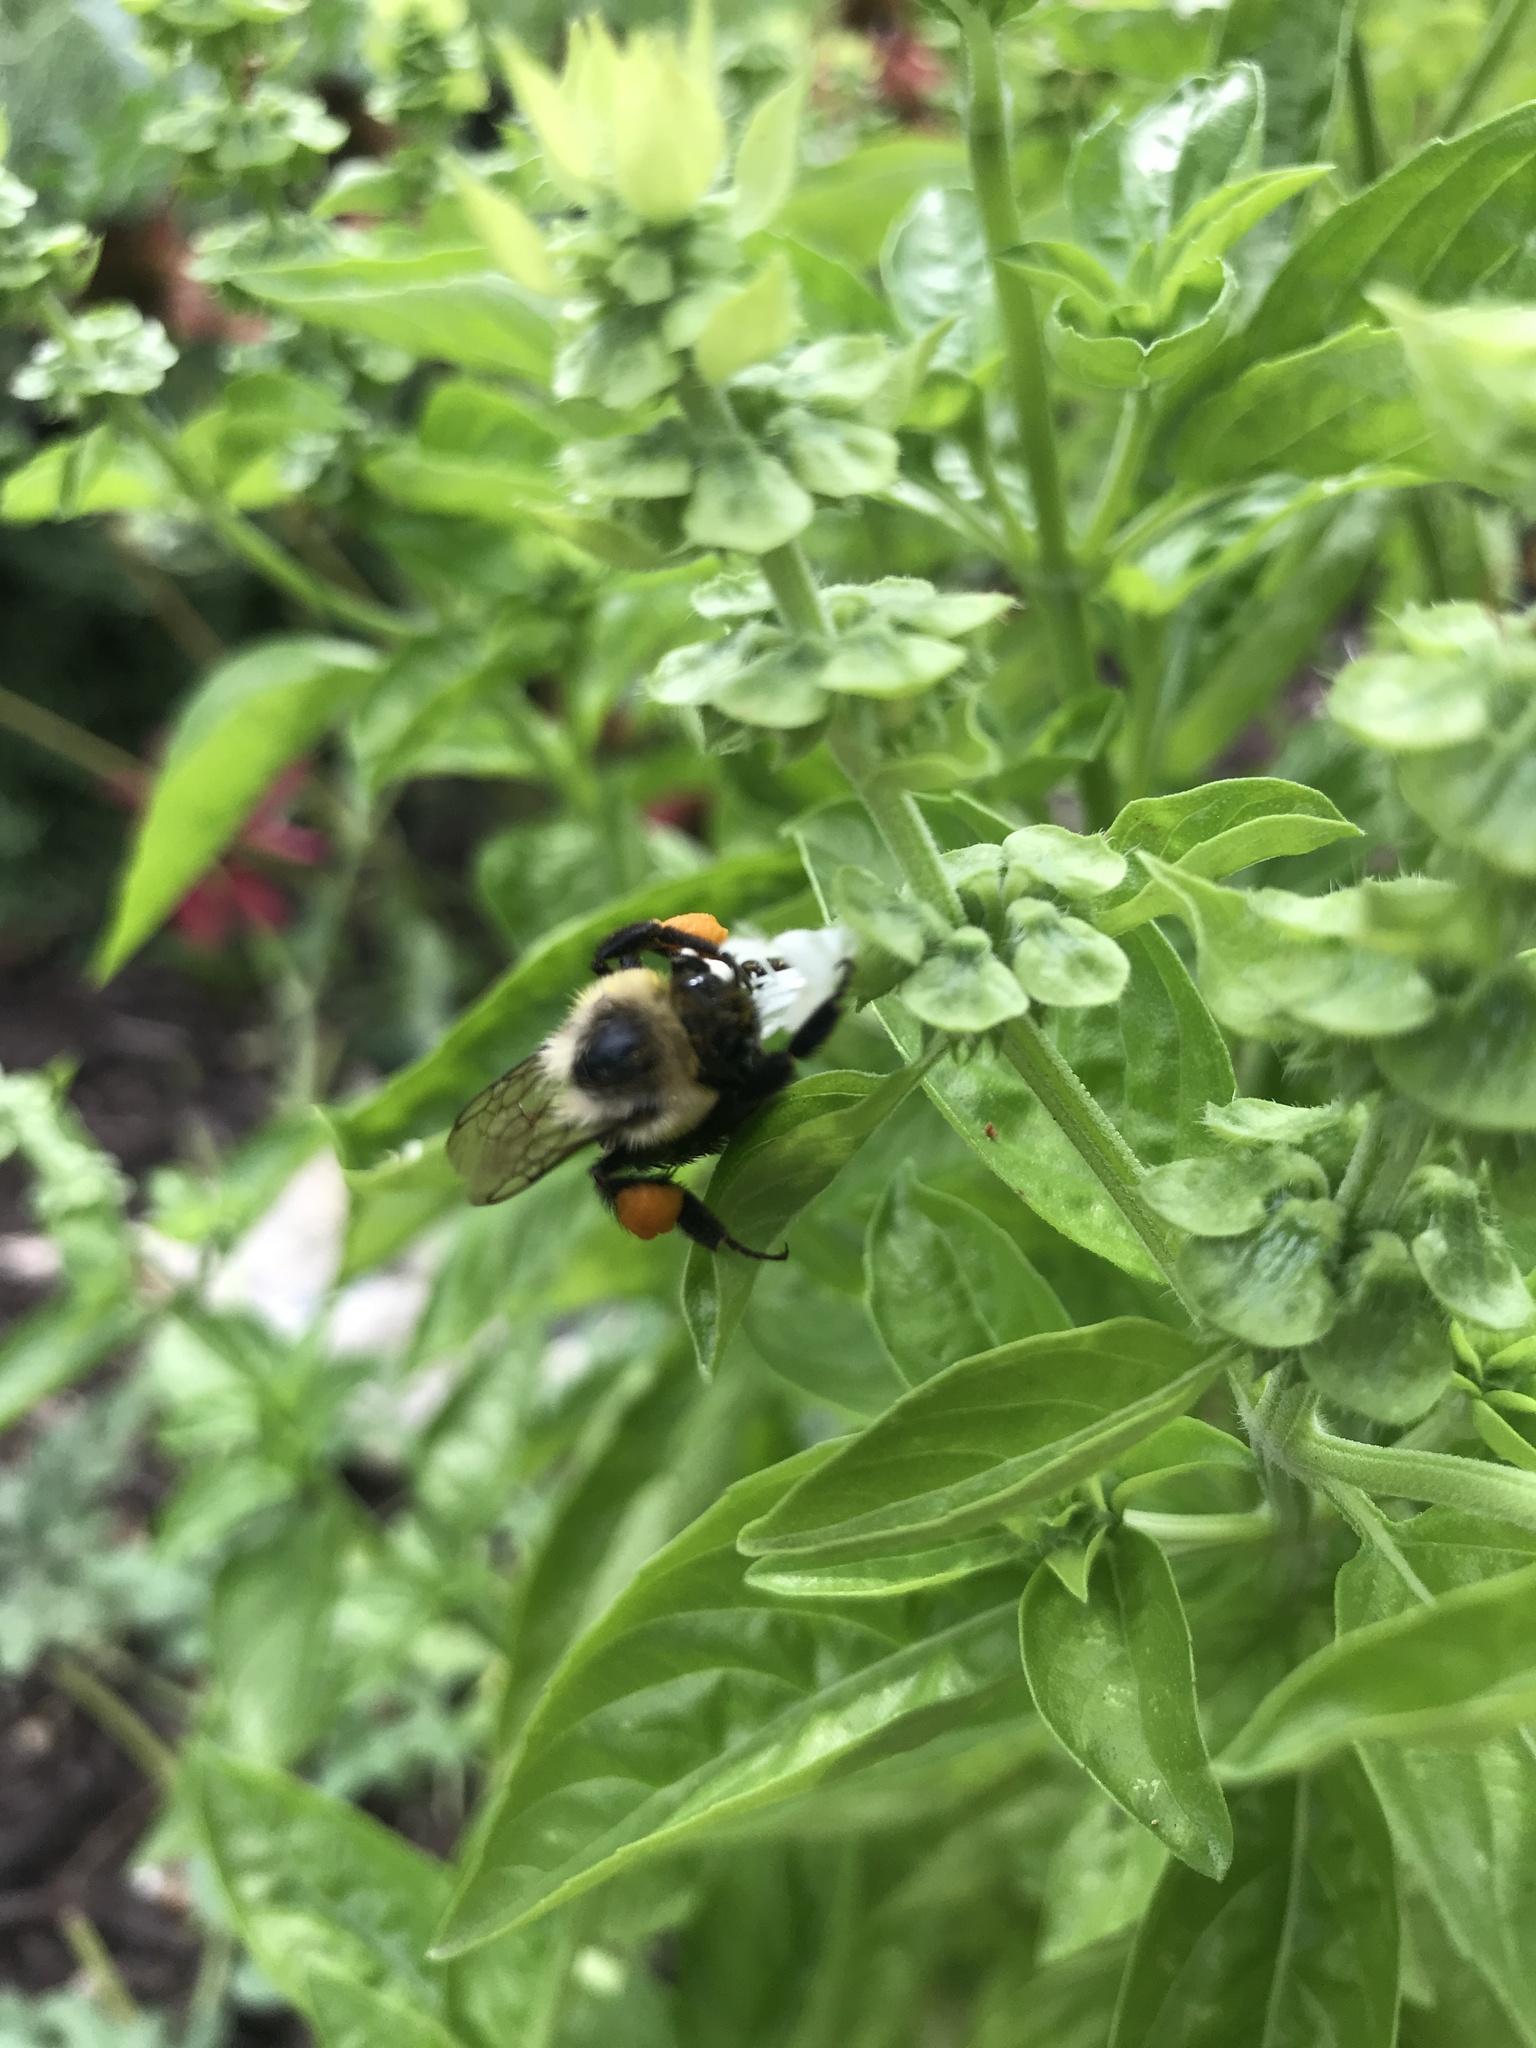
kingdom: Animalia
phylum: Arthropoda
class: Insecta
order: Hymenoptera
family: Apidae
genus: Bombus
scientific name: Bombus impatiens
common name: Common eastern bumble bee
